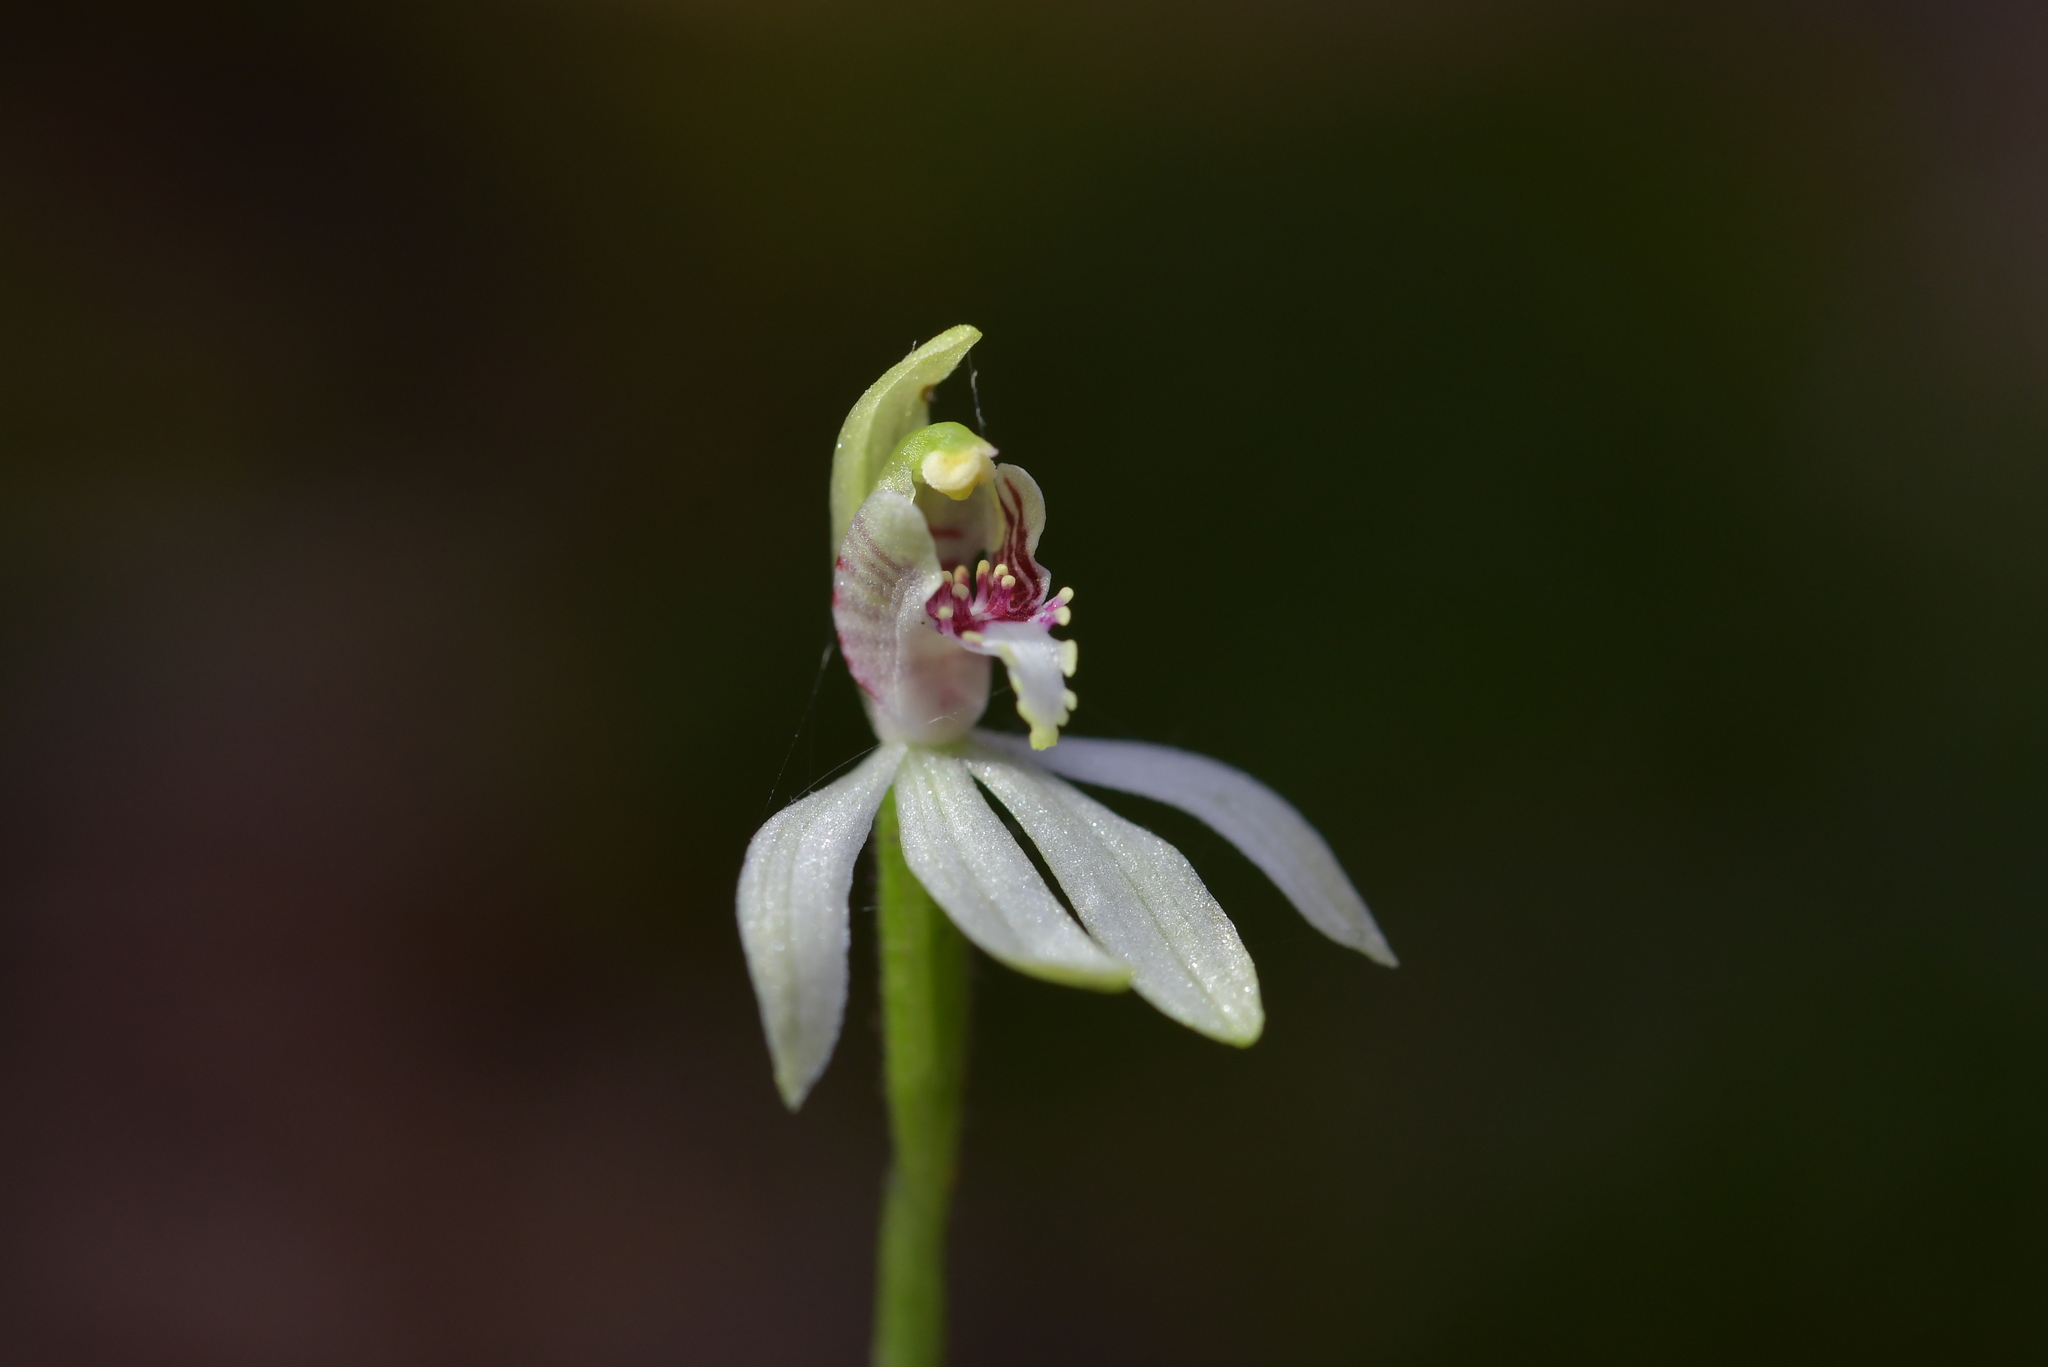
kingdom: Plantae
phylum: Tracheophyta
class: Liliopsida
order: Asparagales
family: Orchidaceae
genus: Caladenia
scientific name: Caladenia chlorostyla
